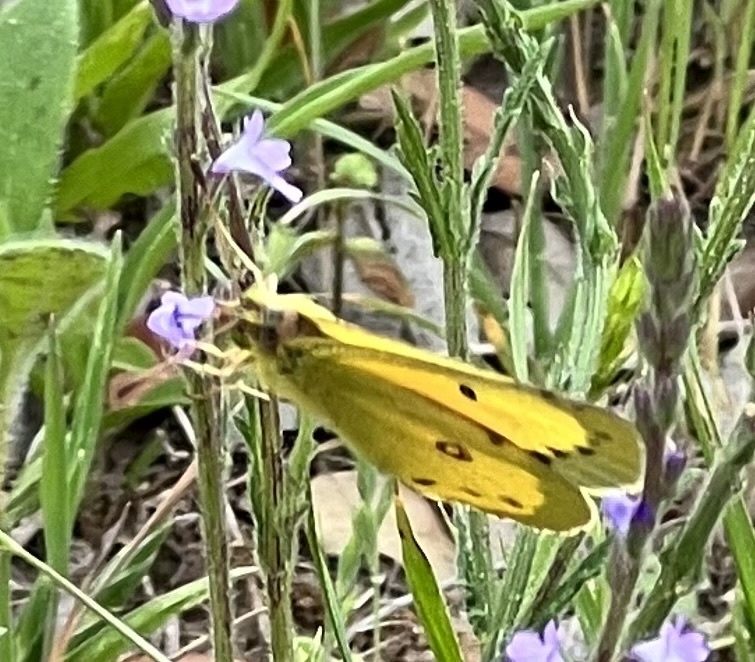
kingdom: Animalia
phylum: Arthropoda
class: Insecta
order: Lepidoptera
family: Pieridae
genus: Colias
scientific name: Colias eurytheme
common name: Alfalfa butterfly
